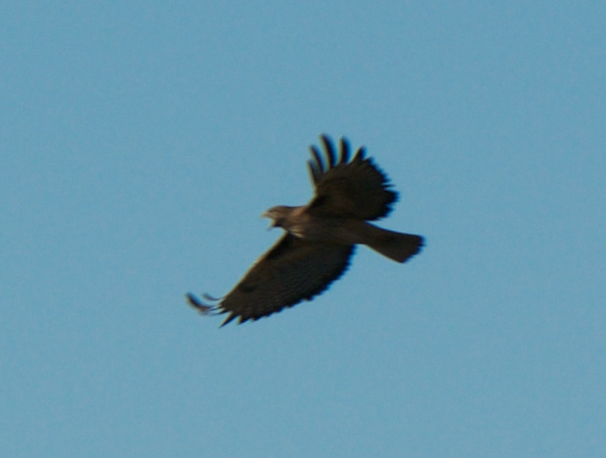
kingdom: Animalia
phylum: Chordata
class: Aves
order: Accipitriformes
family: Accipitridae
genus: Buteo
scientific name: Buteo jamaicensis
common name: Red-tailed hawk
